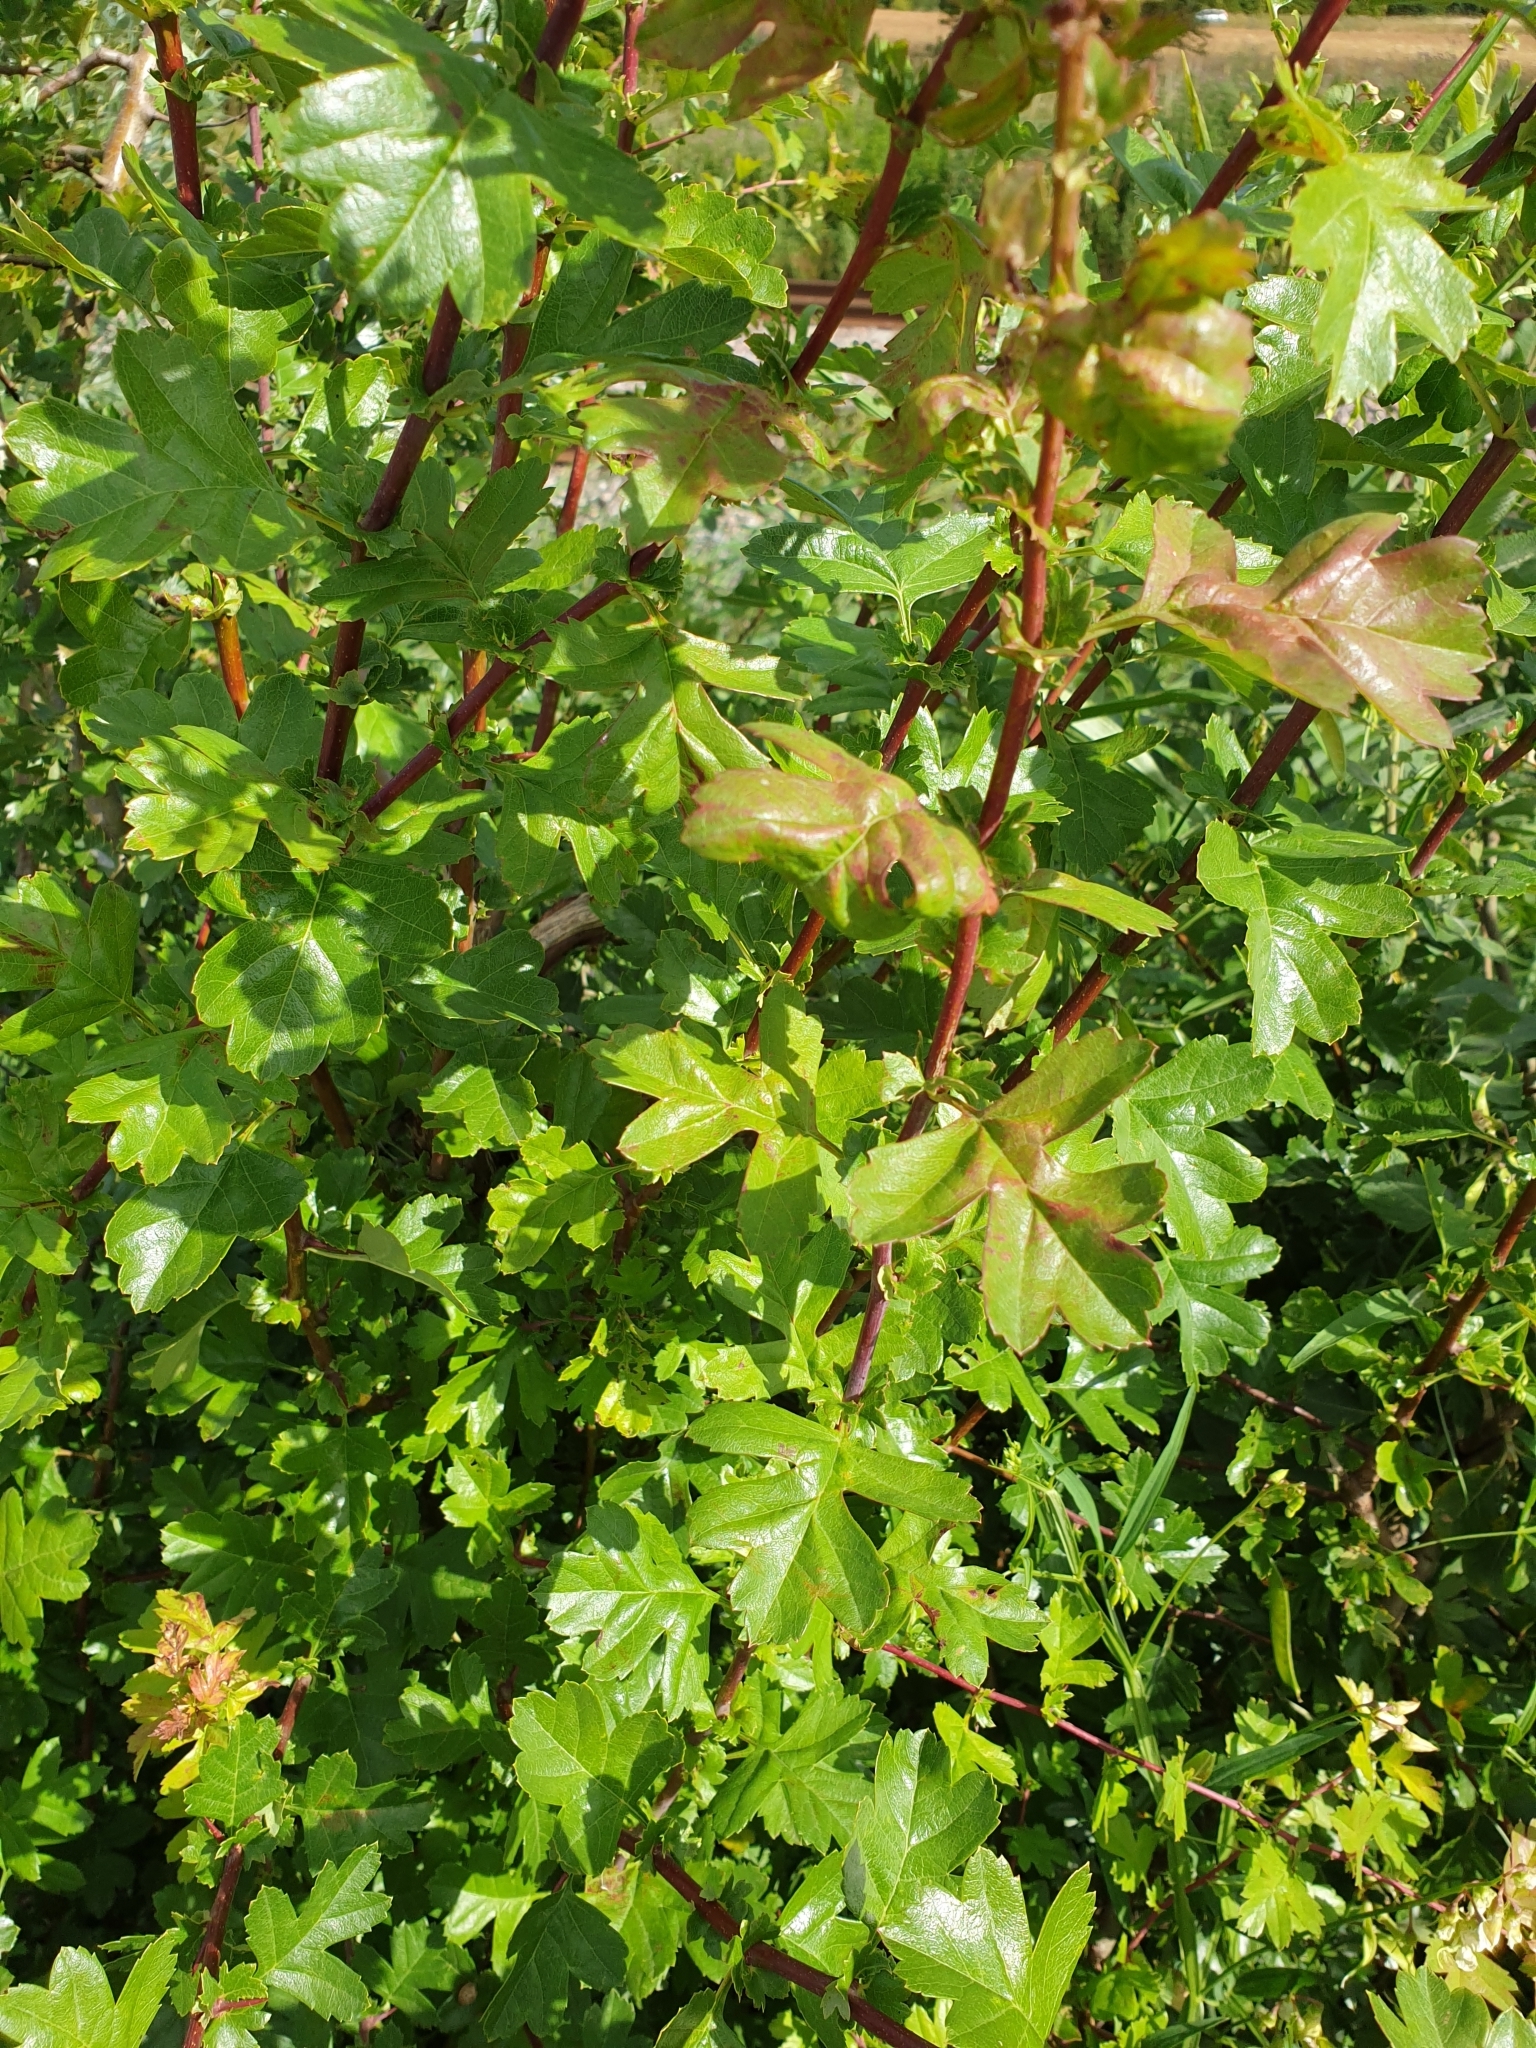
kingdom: Plantae
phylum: Tracheophyta
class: Magnoliopsida
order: Sapindales
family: Sapindaceae
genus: Acer
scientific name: Acer campestre
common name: Field maple
